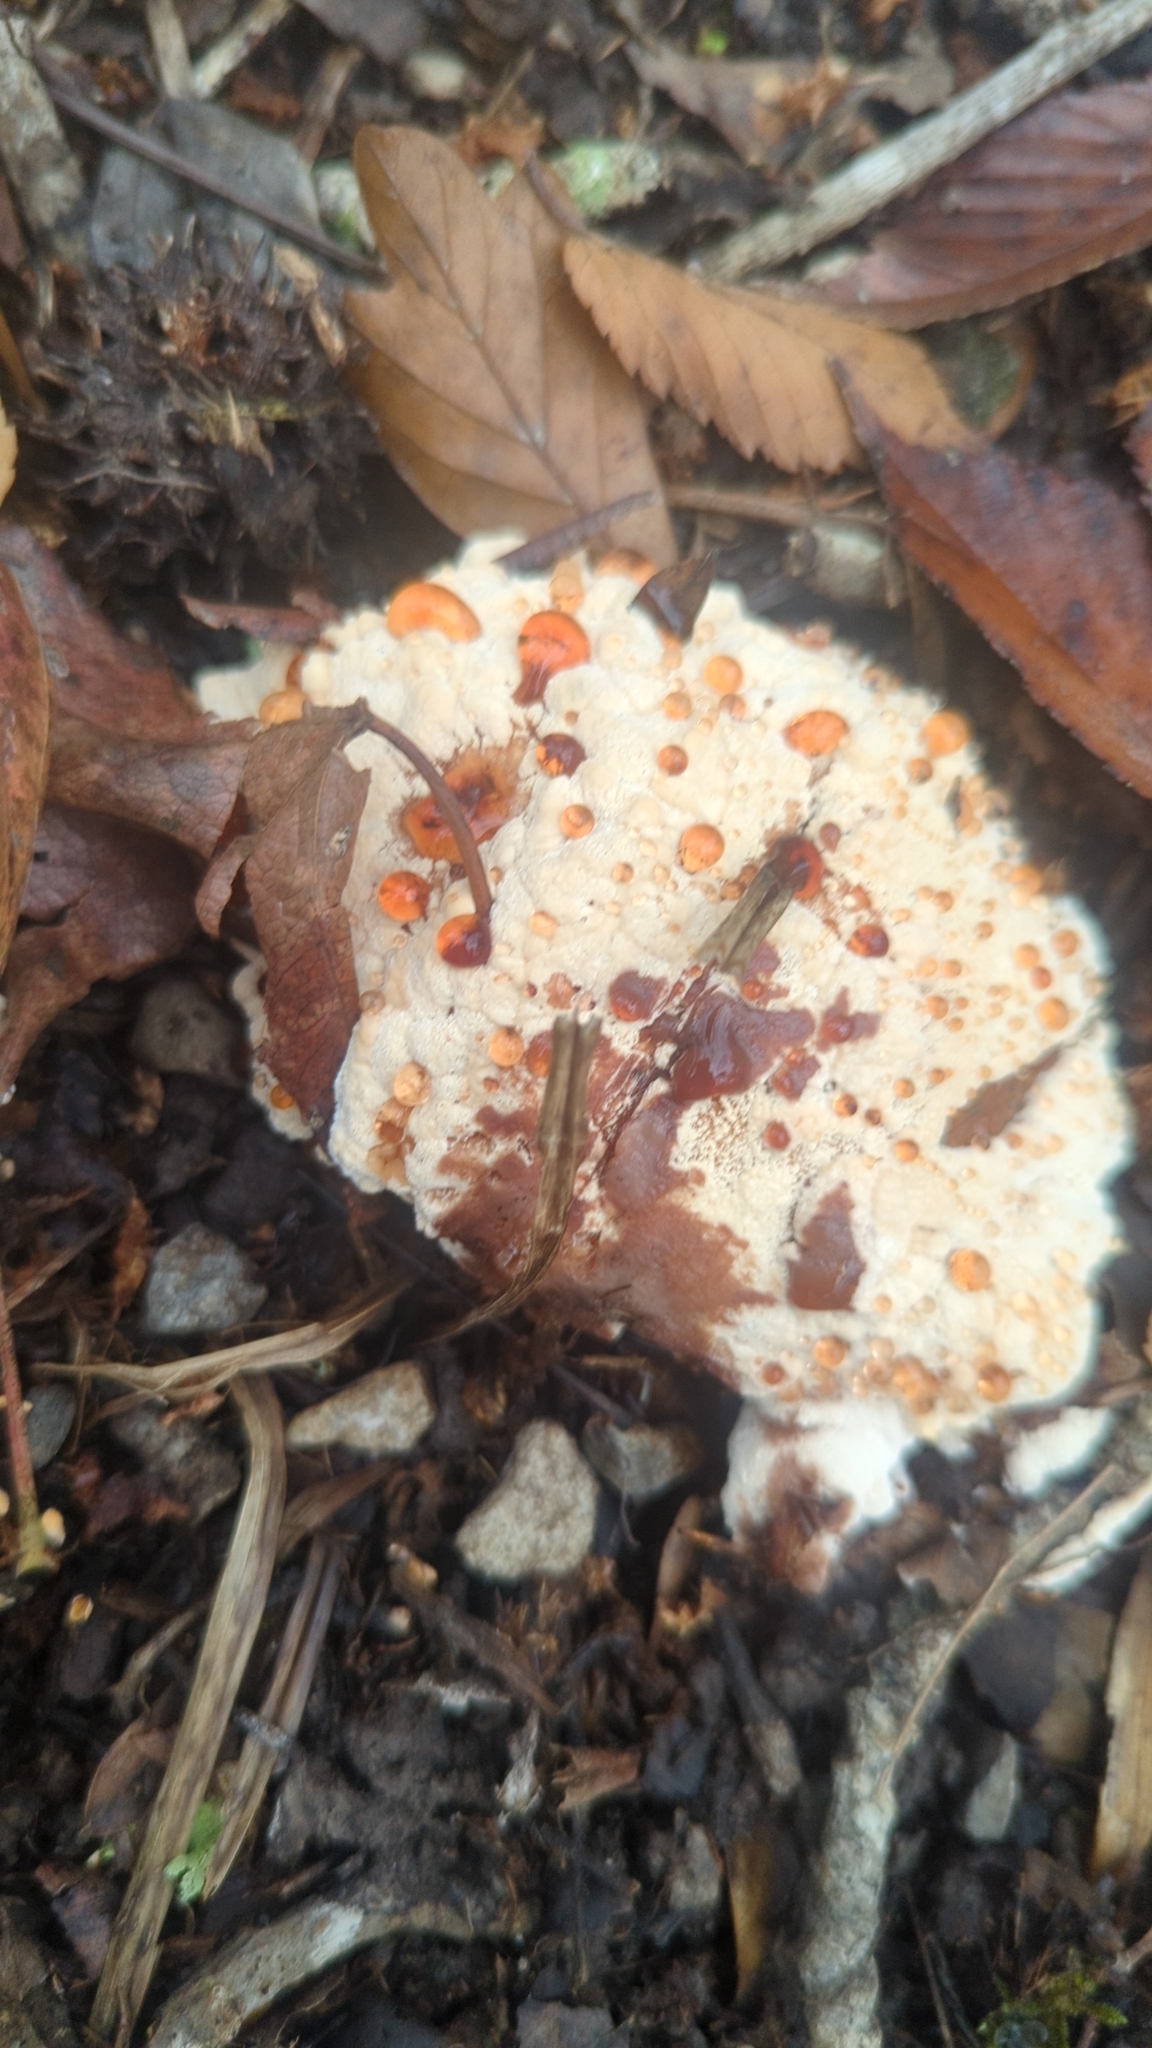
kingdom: Fungi
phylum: Basidiomycota
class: Agaricomycetes
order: Polyporales
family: Podoscyphaceae
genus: Abortiporus
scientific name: Abortiporus biennis
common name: Blushing rosette
